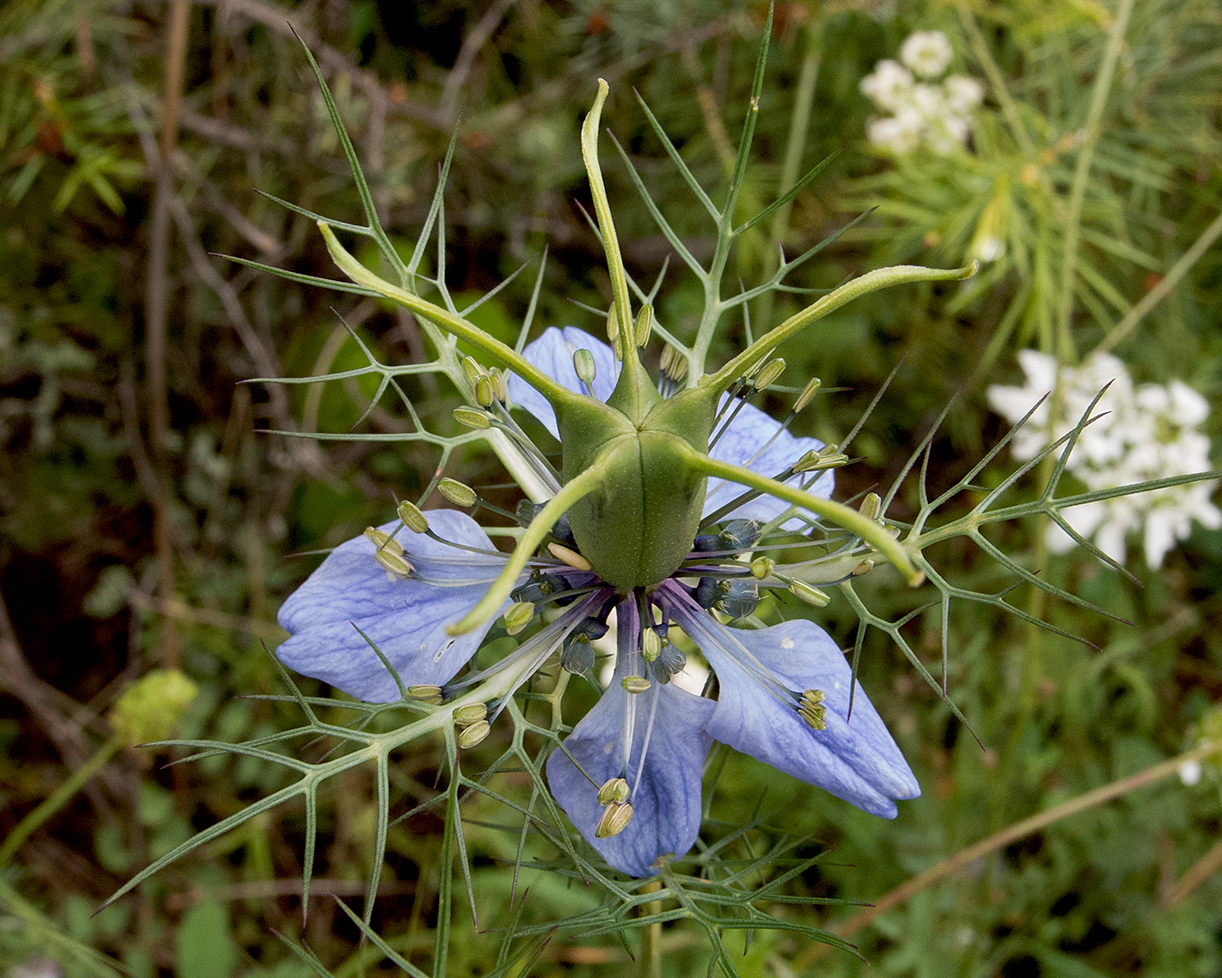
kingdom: Plantae
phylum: Tracheophyta
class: Magnoliopsida
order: Ranunculales
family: Ranunculaceae
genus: Nigella
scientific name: Nigella damascena
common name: Love-in-a-mist
